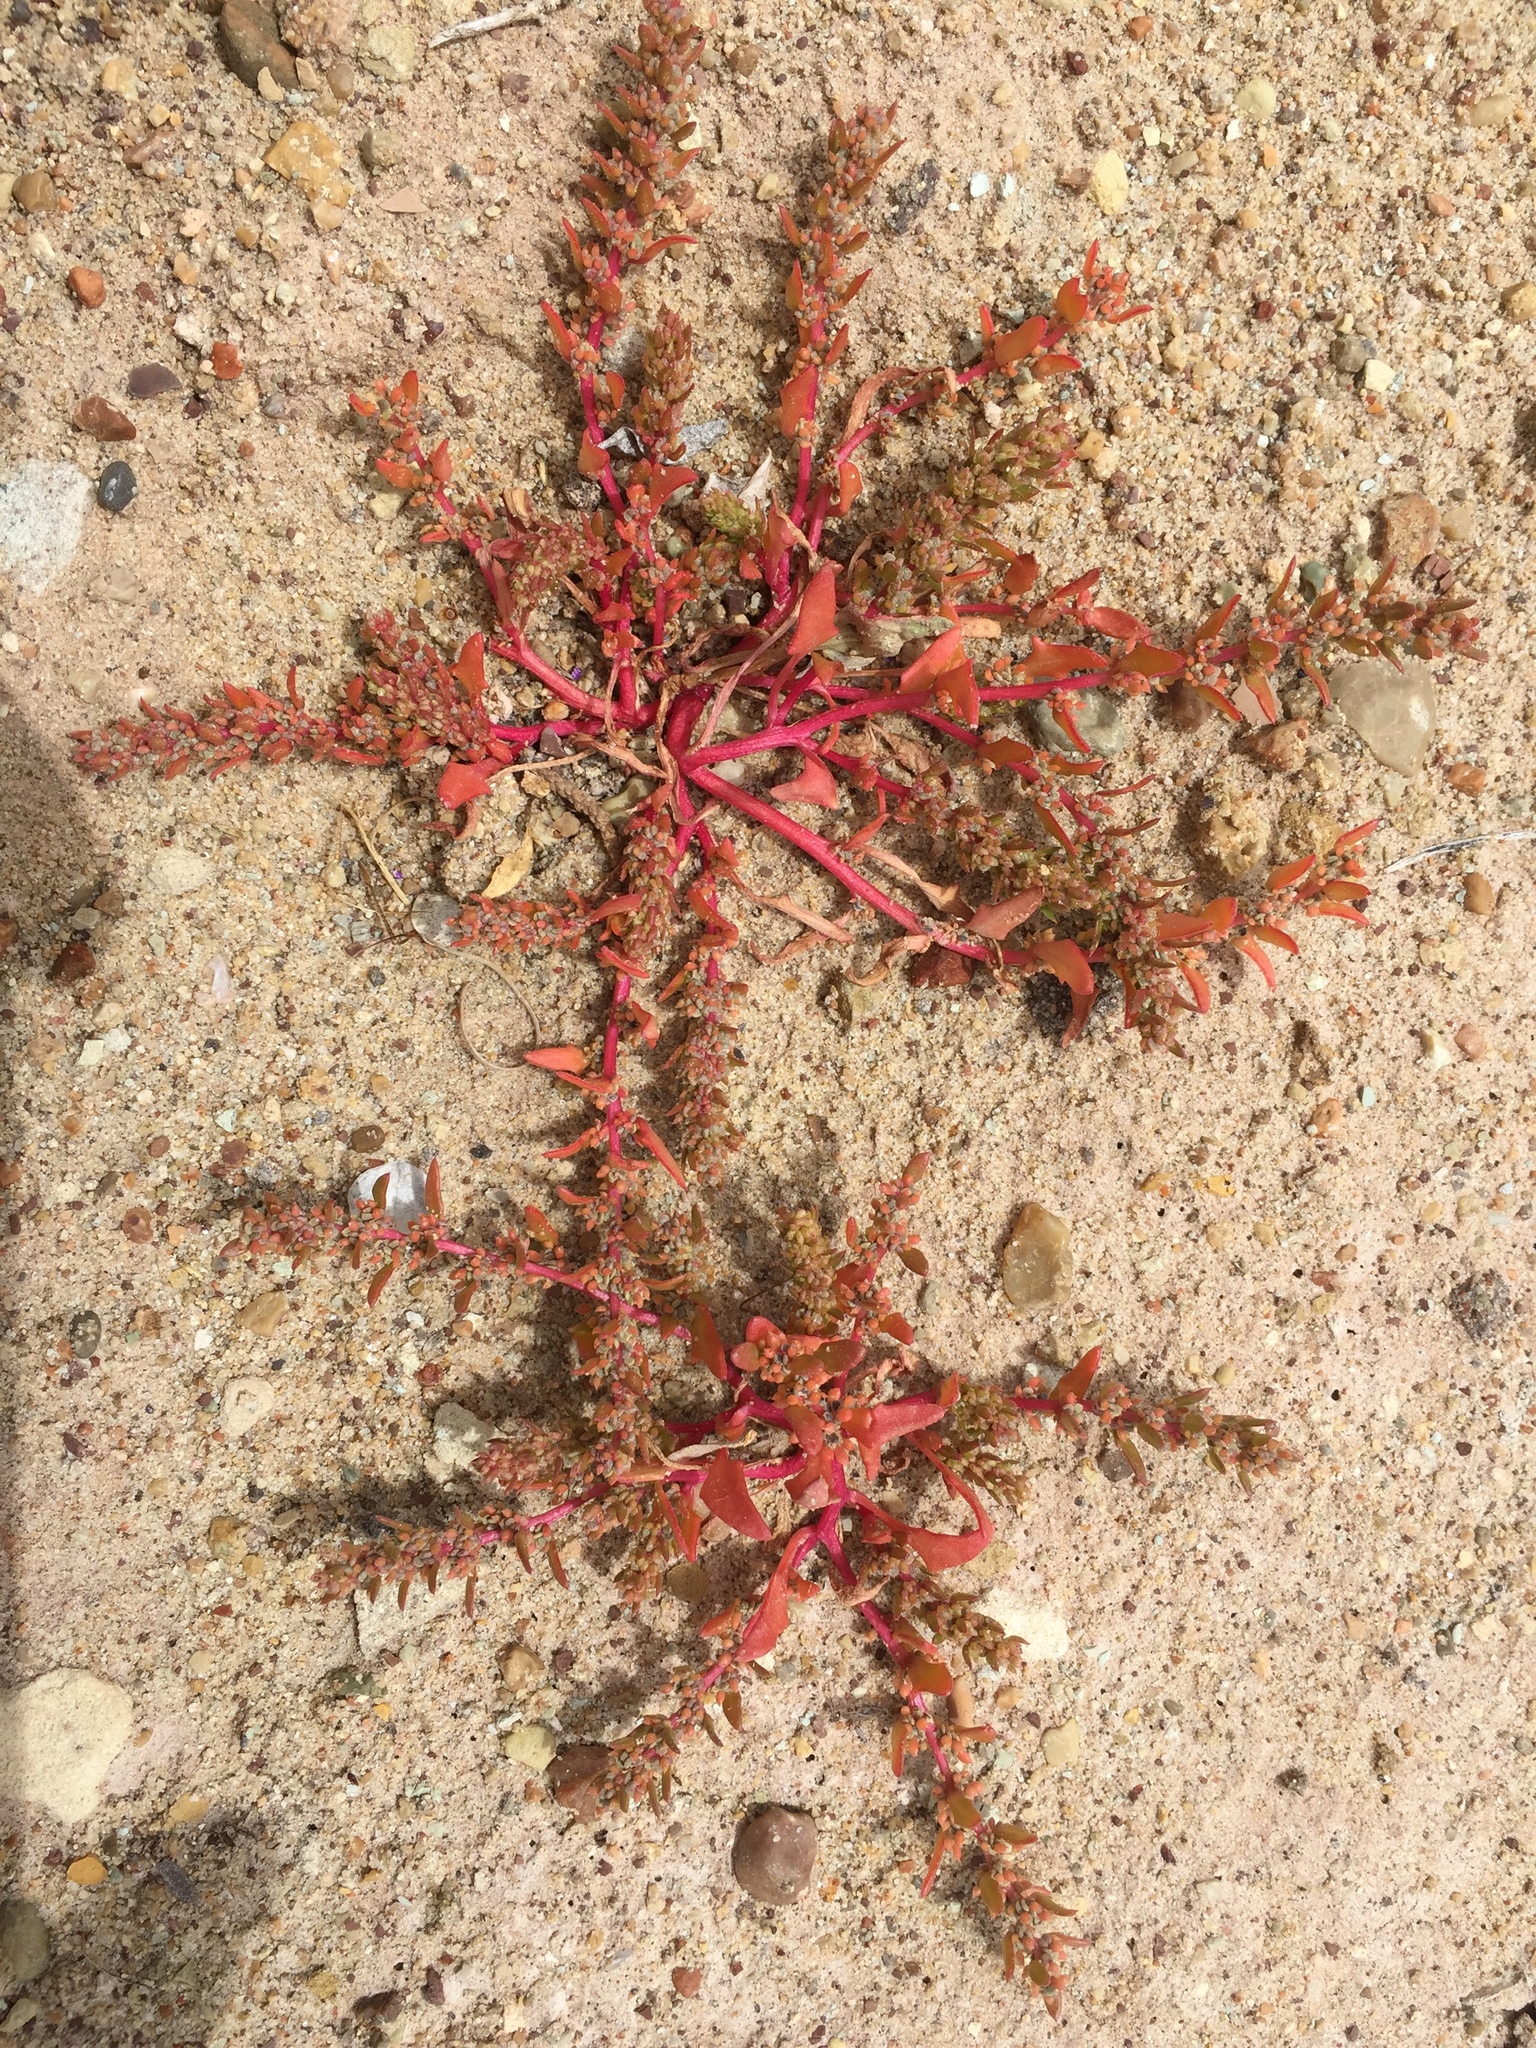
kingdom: Plantae
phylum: Tracheophyta
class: Magnoliopsida
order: Caryophyllales
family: Amaranthaceae
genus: Blitum
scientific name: Blitum nuttallianum
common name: Poverty-weed
